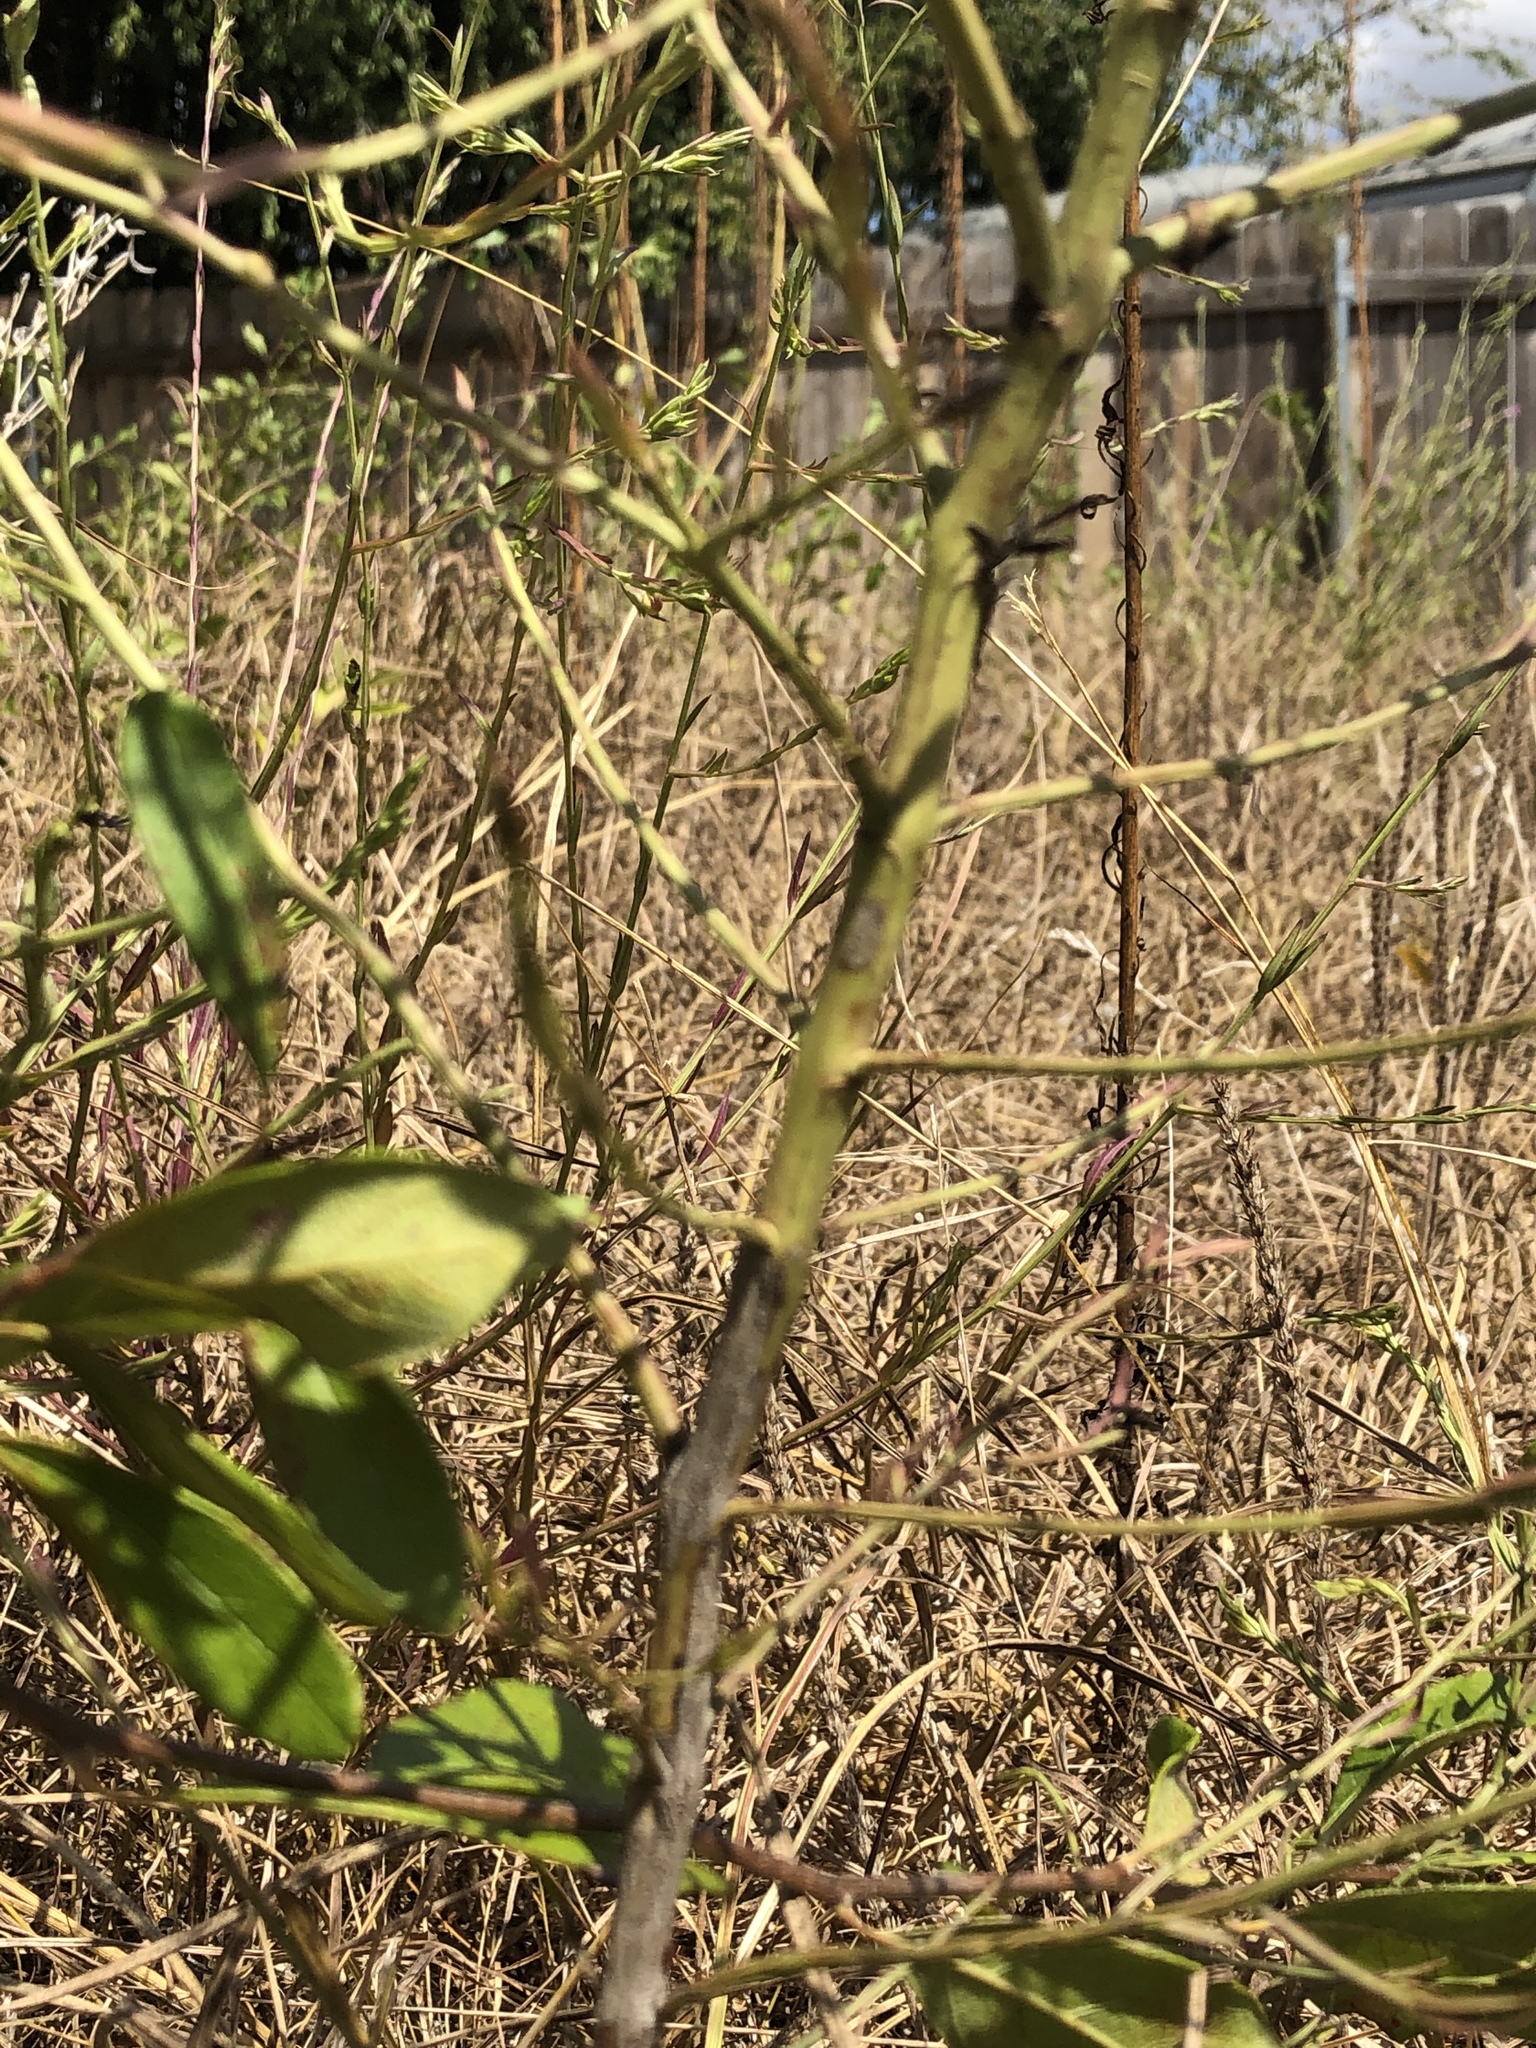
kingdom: Plantae
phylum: Tracheophyta
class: Magnoliopsida
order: Lamiales
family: Orobanchaceae
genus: Agalinis
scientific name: Agalinis heterophylla
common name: Prairie agalinis
